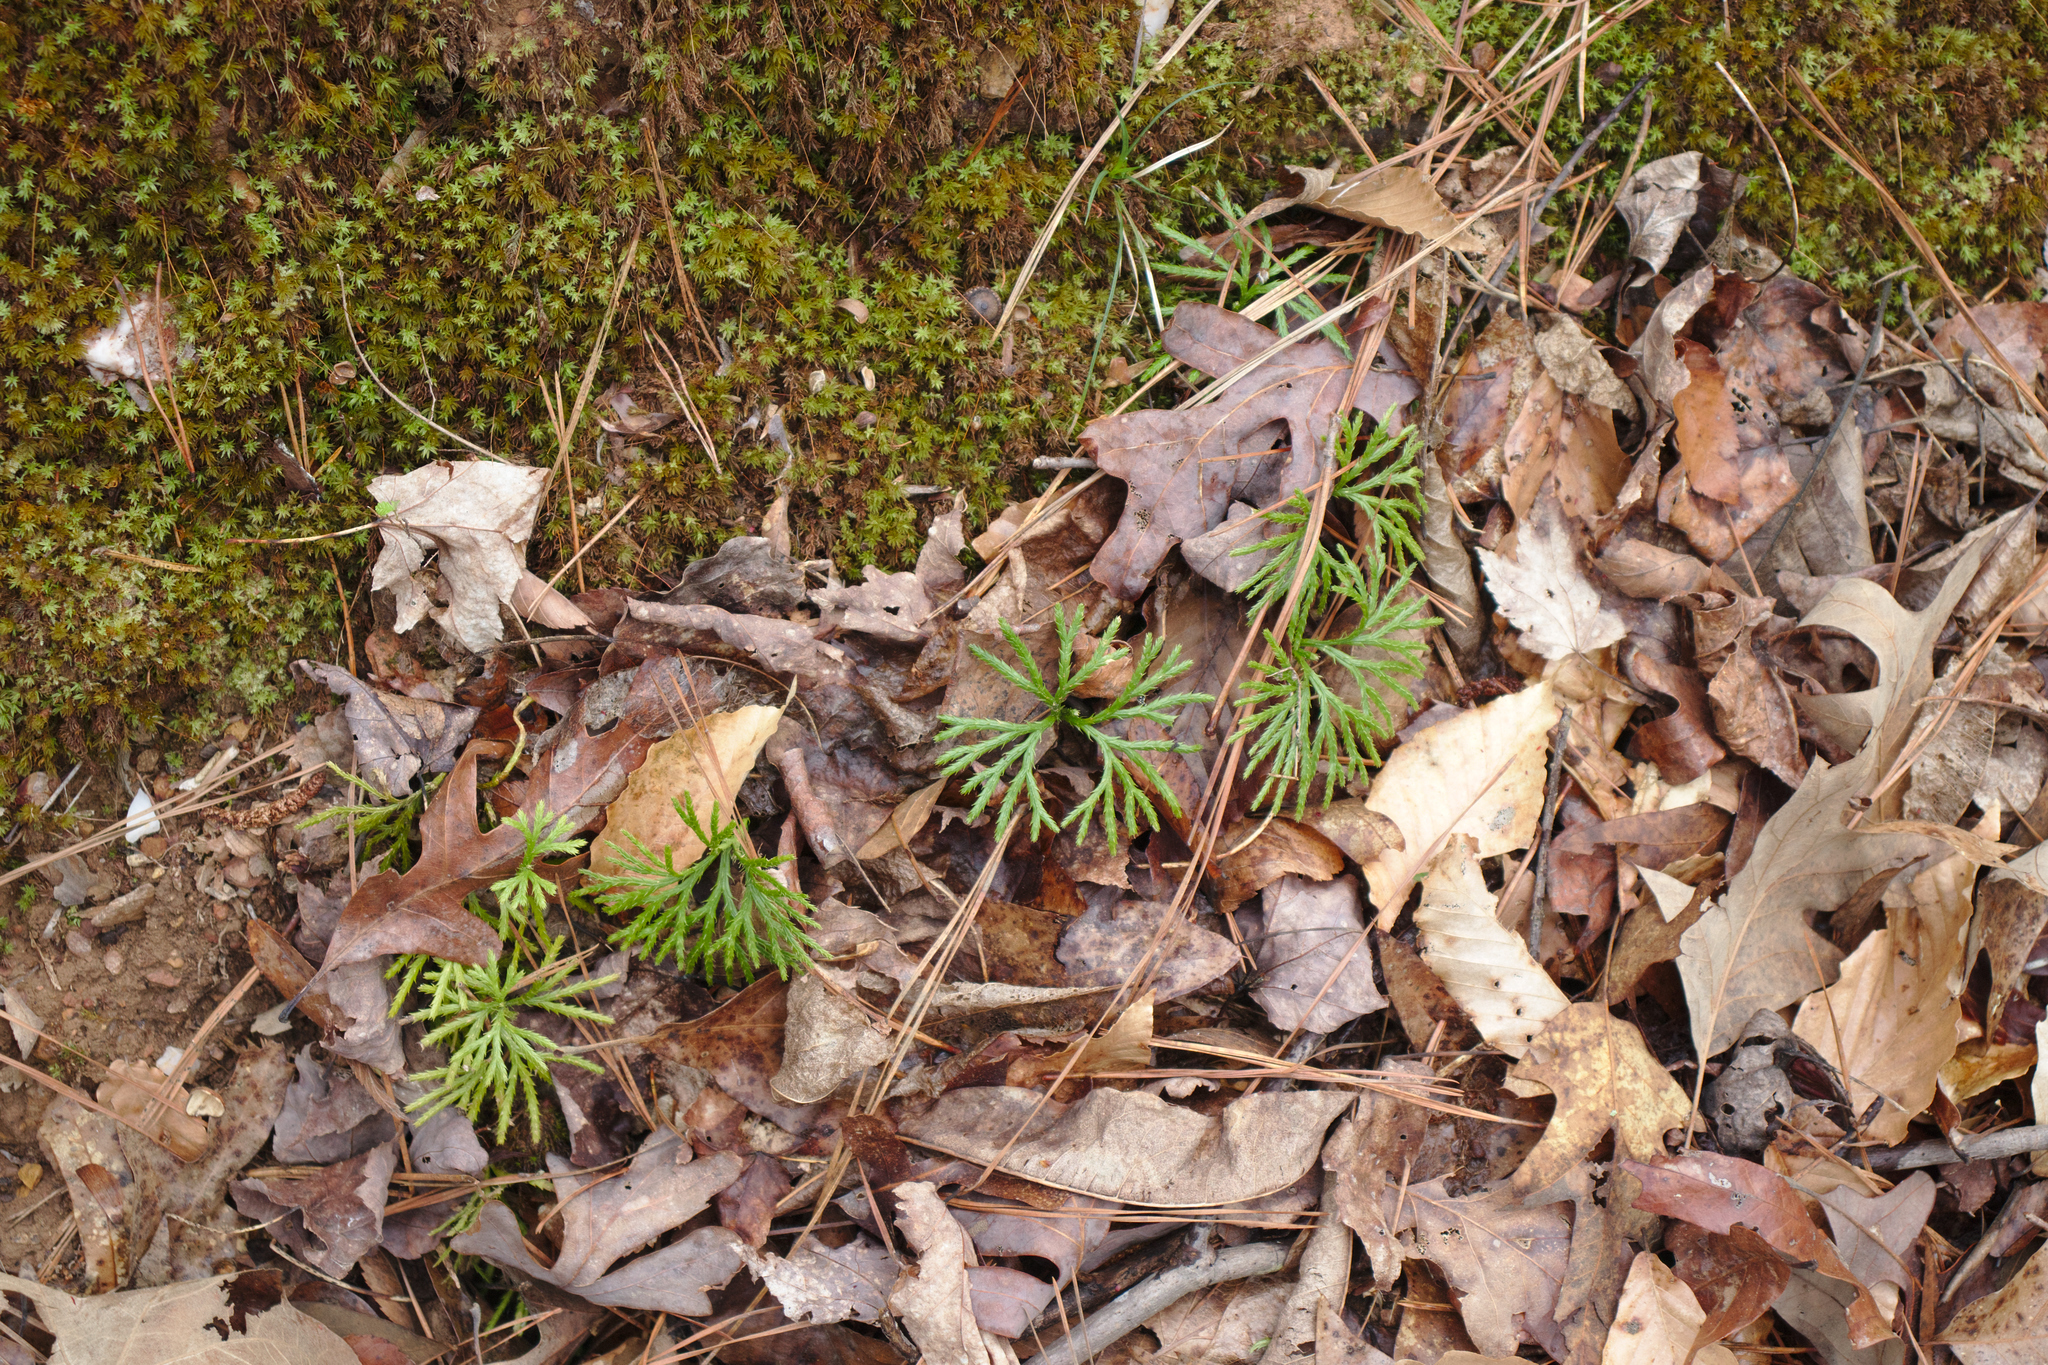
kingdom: Plantae
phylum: Tracheophyta
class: Lycopodiopsida
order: Lycopodiales
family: Lycopodiaceae
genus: Diphasiastrum
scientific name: Diphasiastrum digitatum
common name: Southern running-pine
